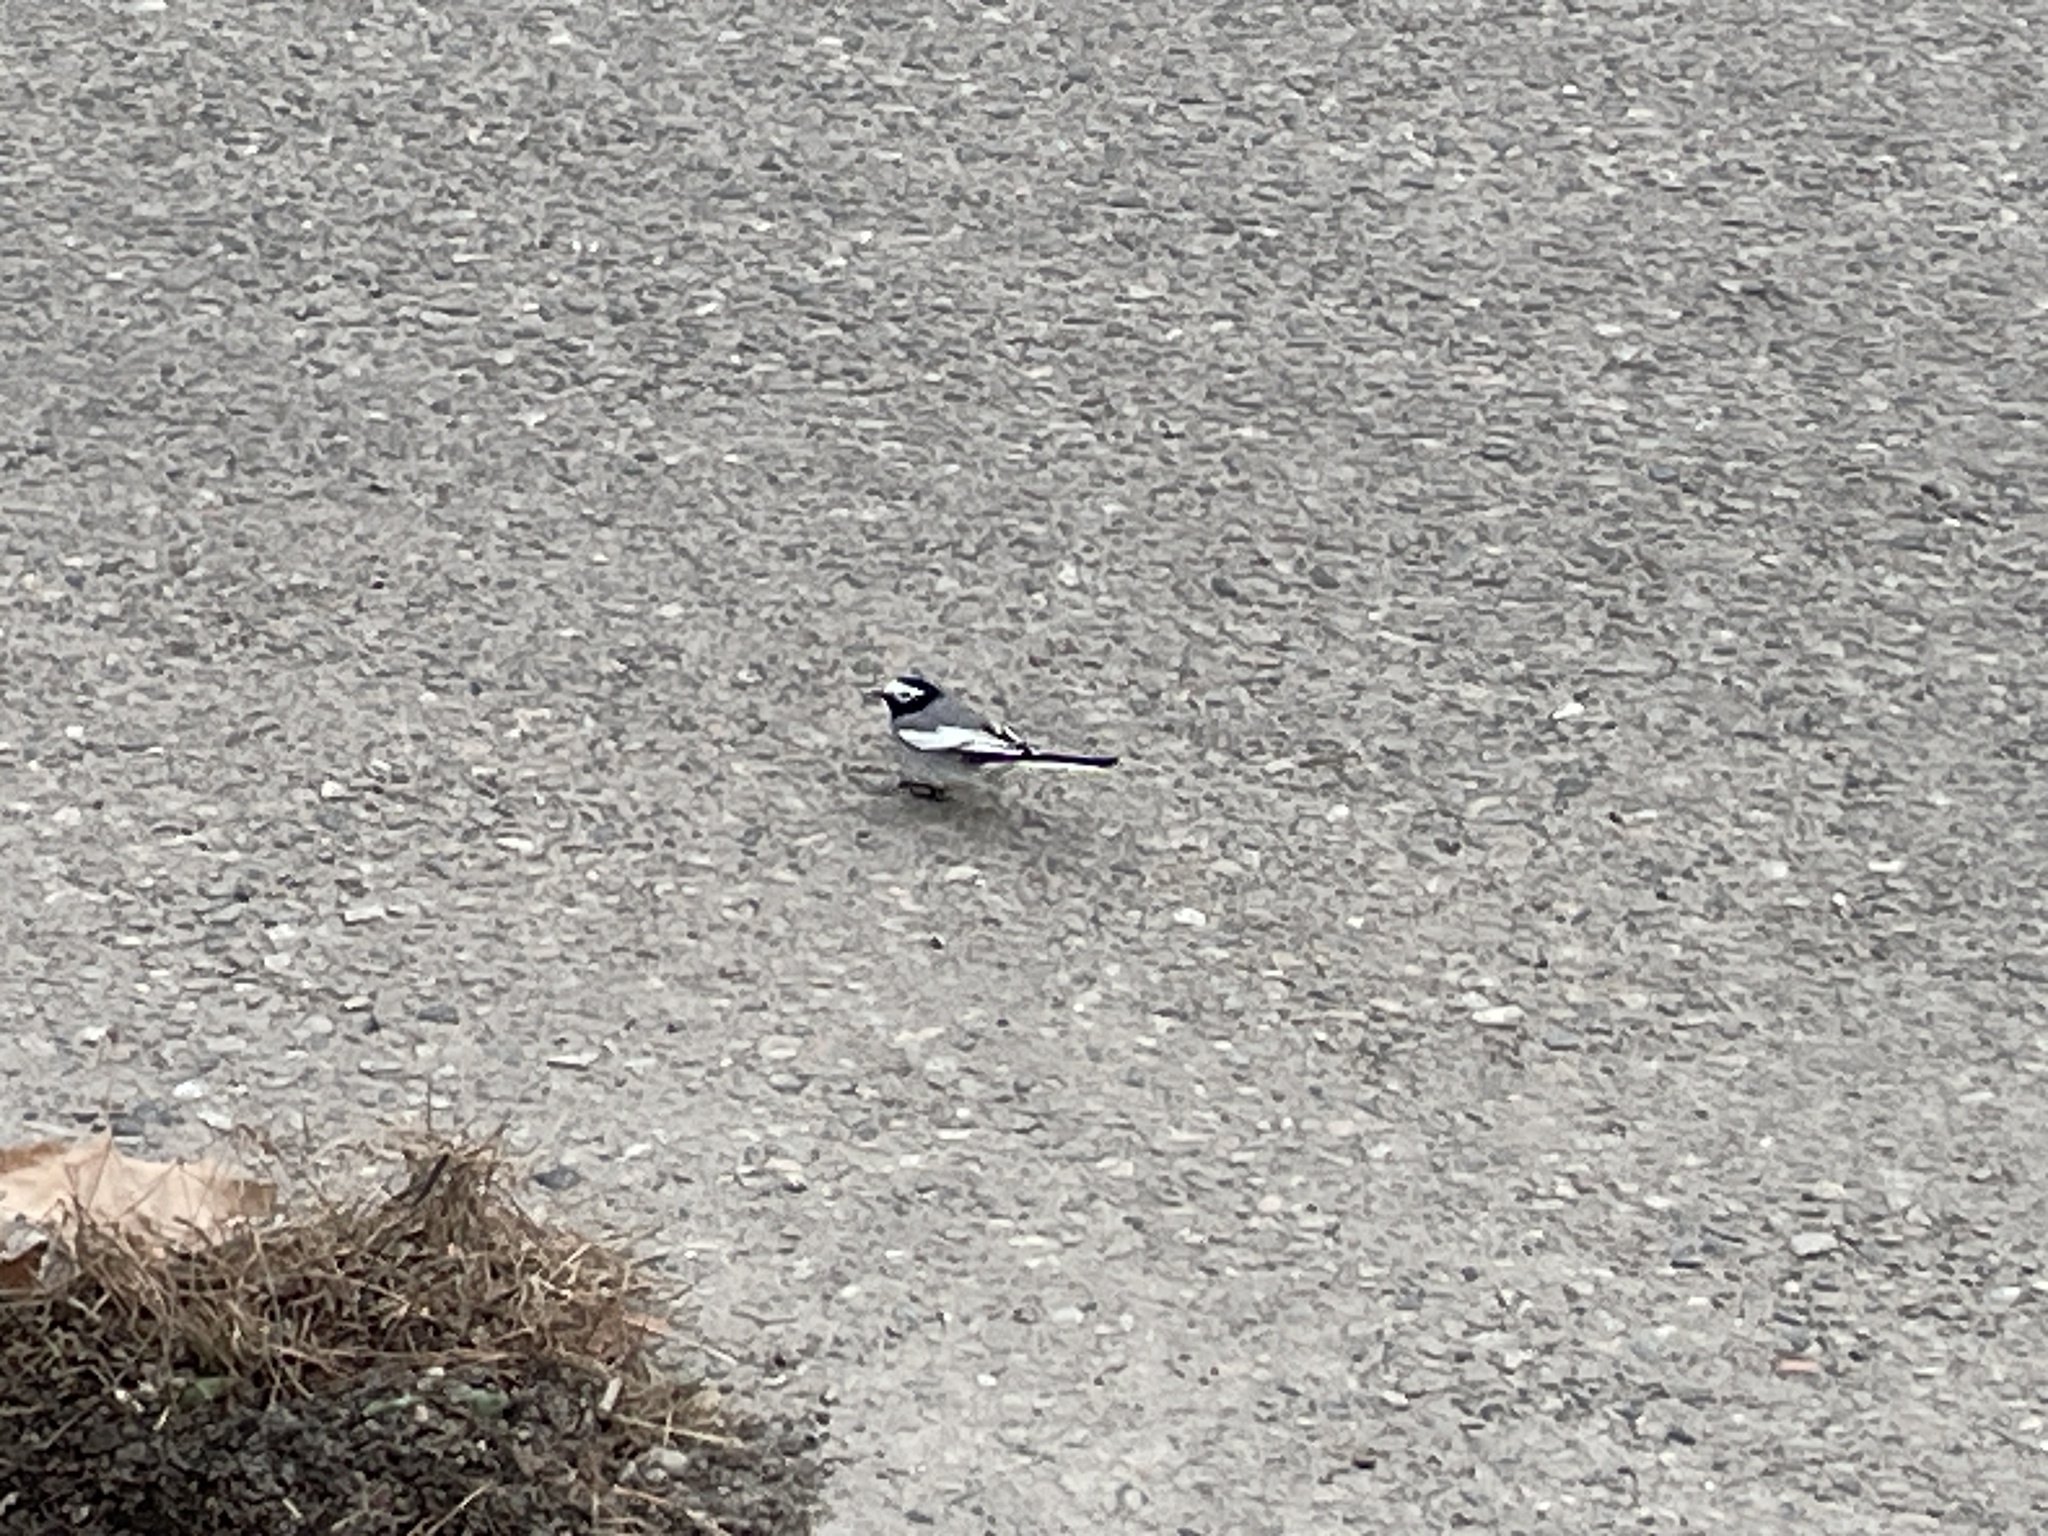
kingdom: Animalia
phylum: Chordata
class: Aves
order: Passeriformes
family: Motacillidae
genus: Motacilla
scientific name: Motacilla alba
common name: White wagtail
